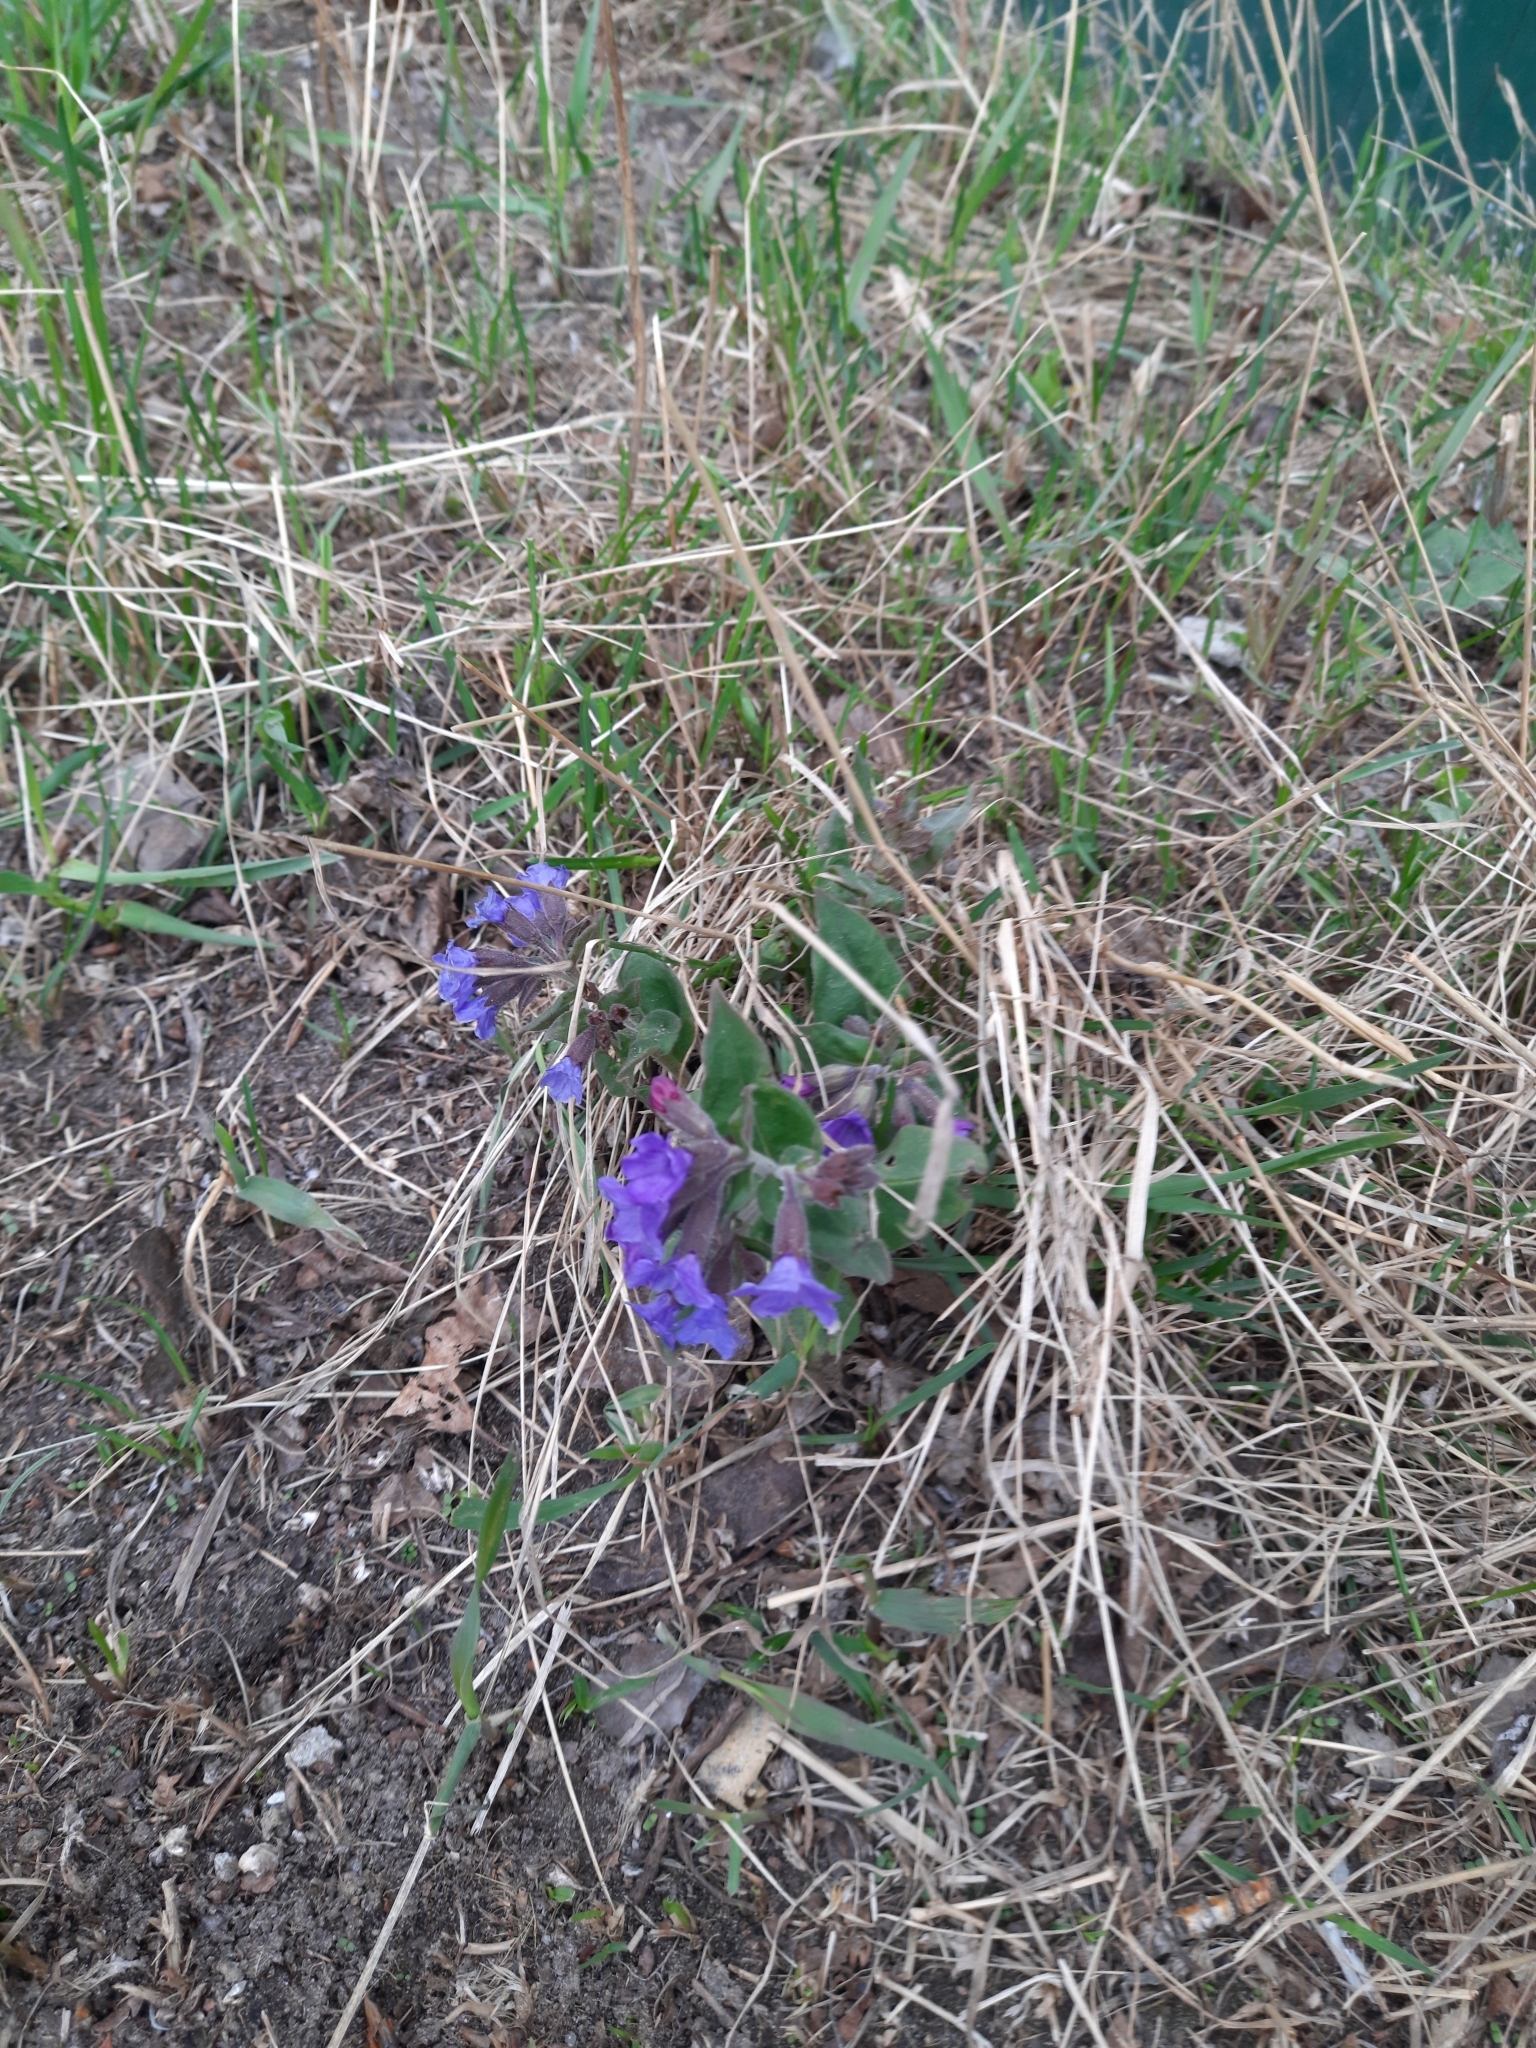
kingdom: Plantae
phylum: Tracheophyta
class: Magnoliopsida
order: Boraginales
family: Boraginaceae
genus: Pulmonaria
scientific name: Pulmonaria mollis
